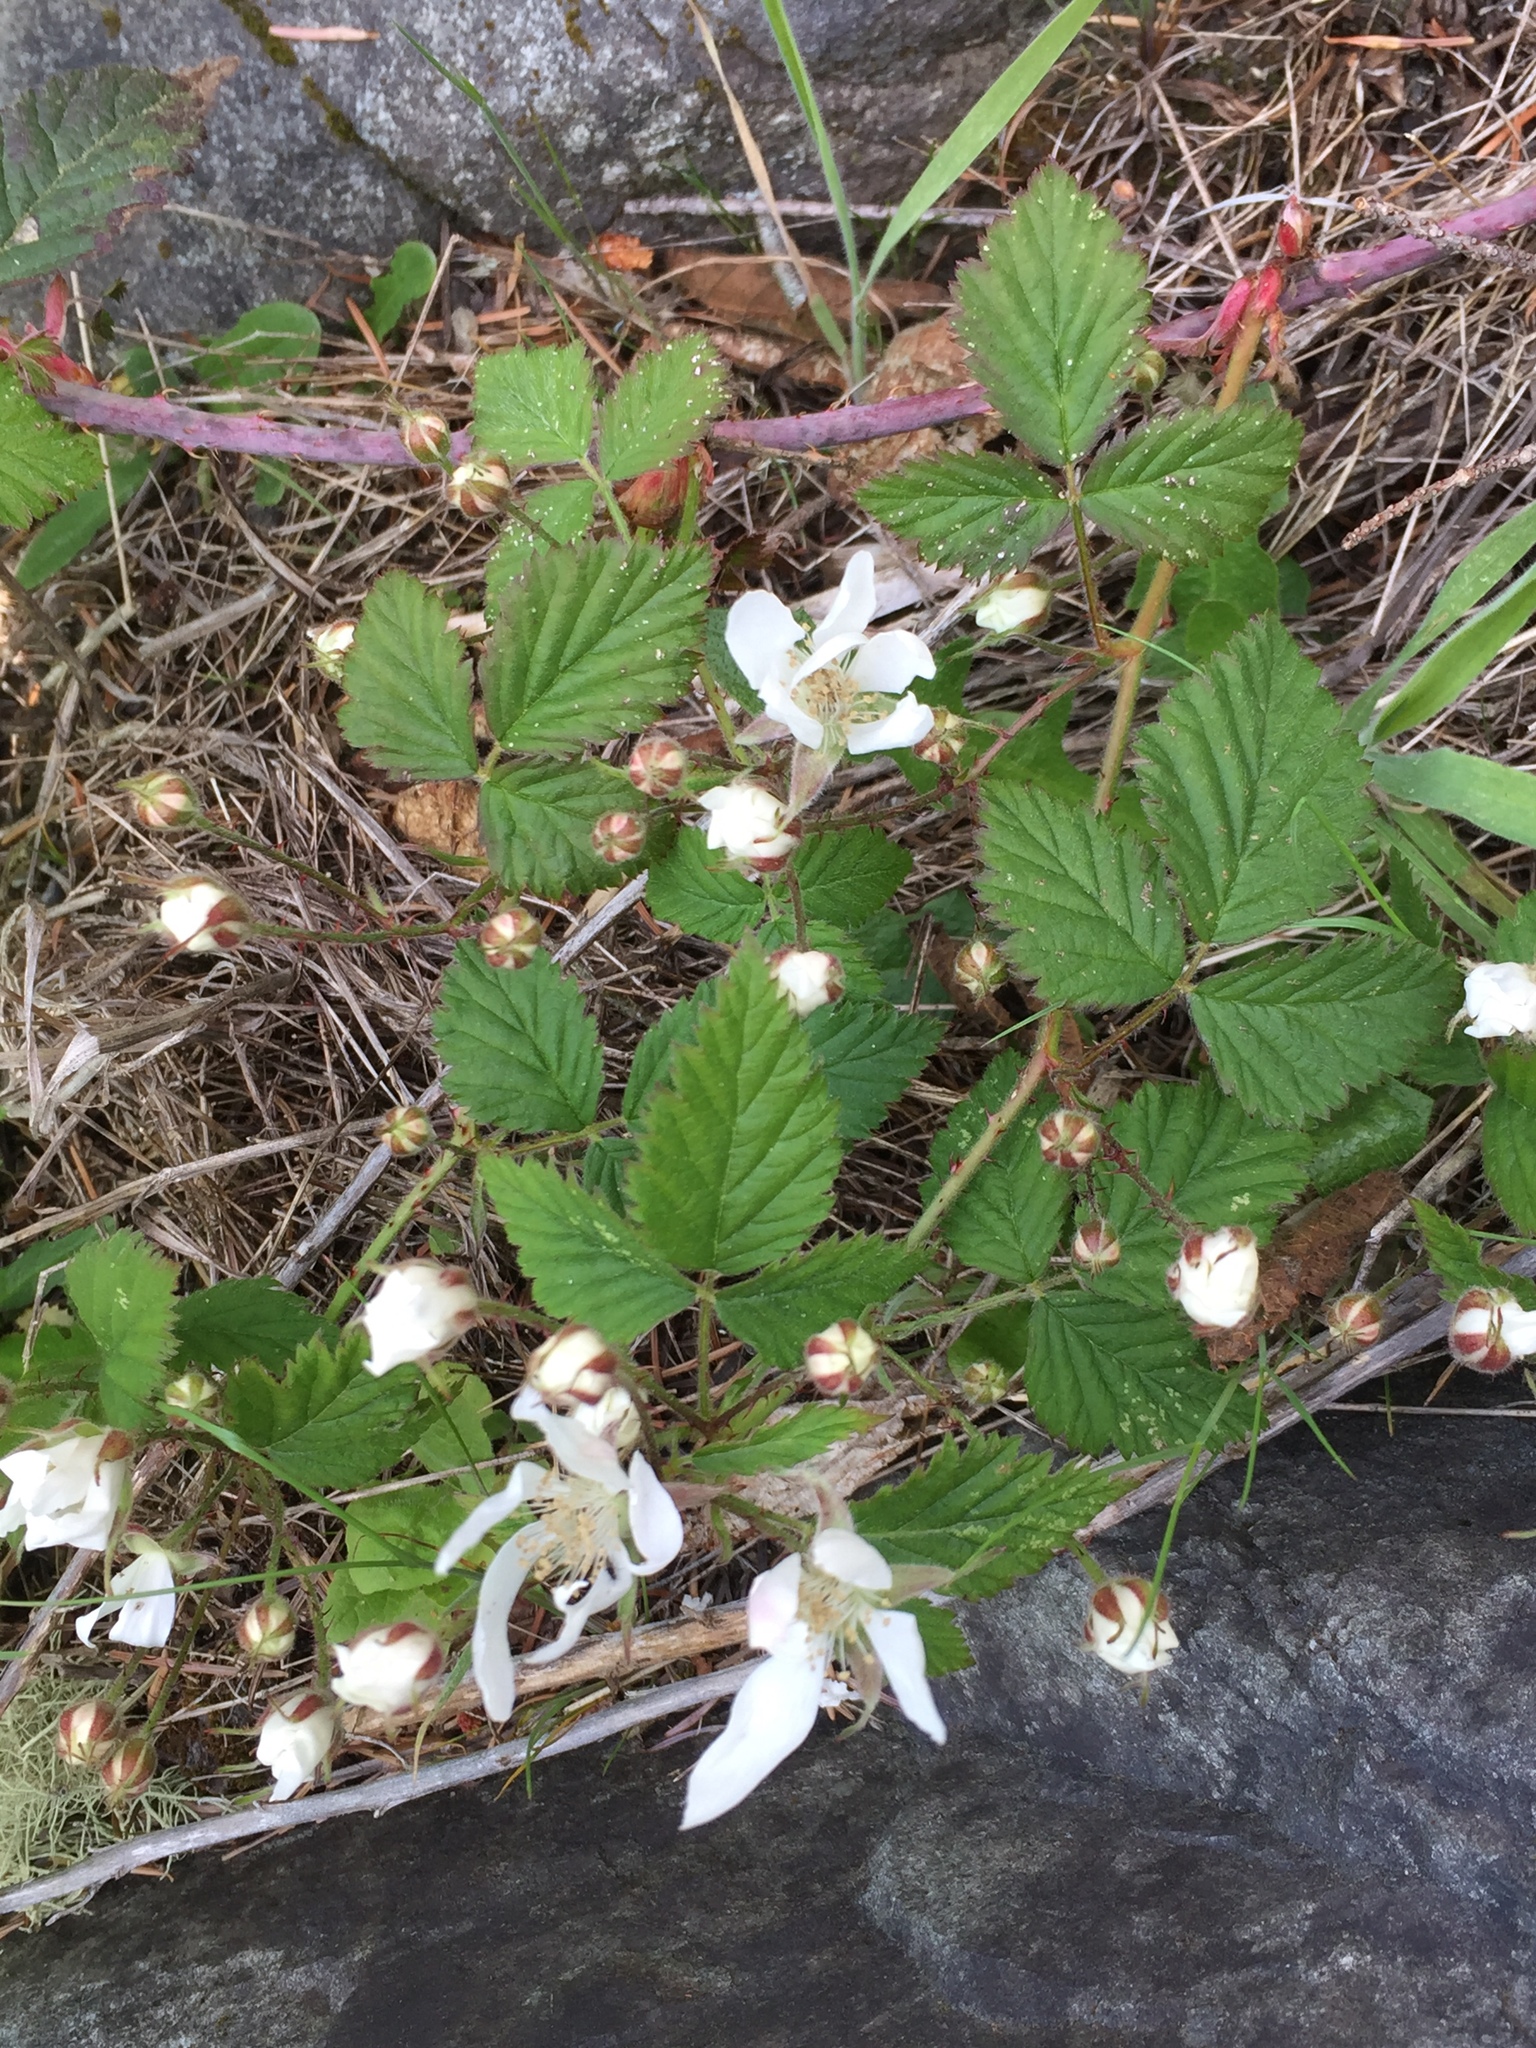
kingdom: Plantae
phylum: Tracheophyta
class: Magnoliopsida
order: Rosales
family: Rosaceae
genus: Rubus
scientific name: Rubus ursinus
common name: Pacific blackberry
